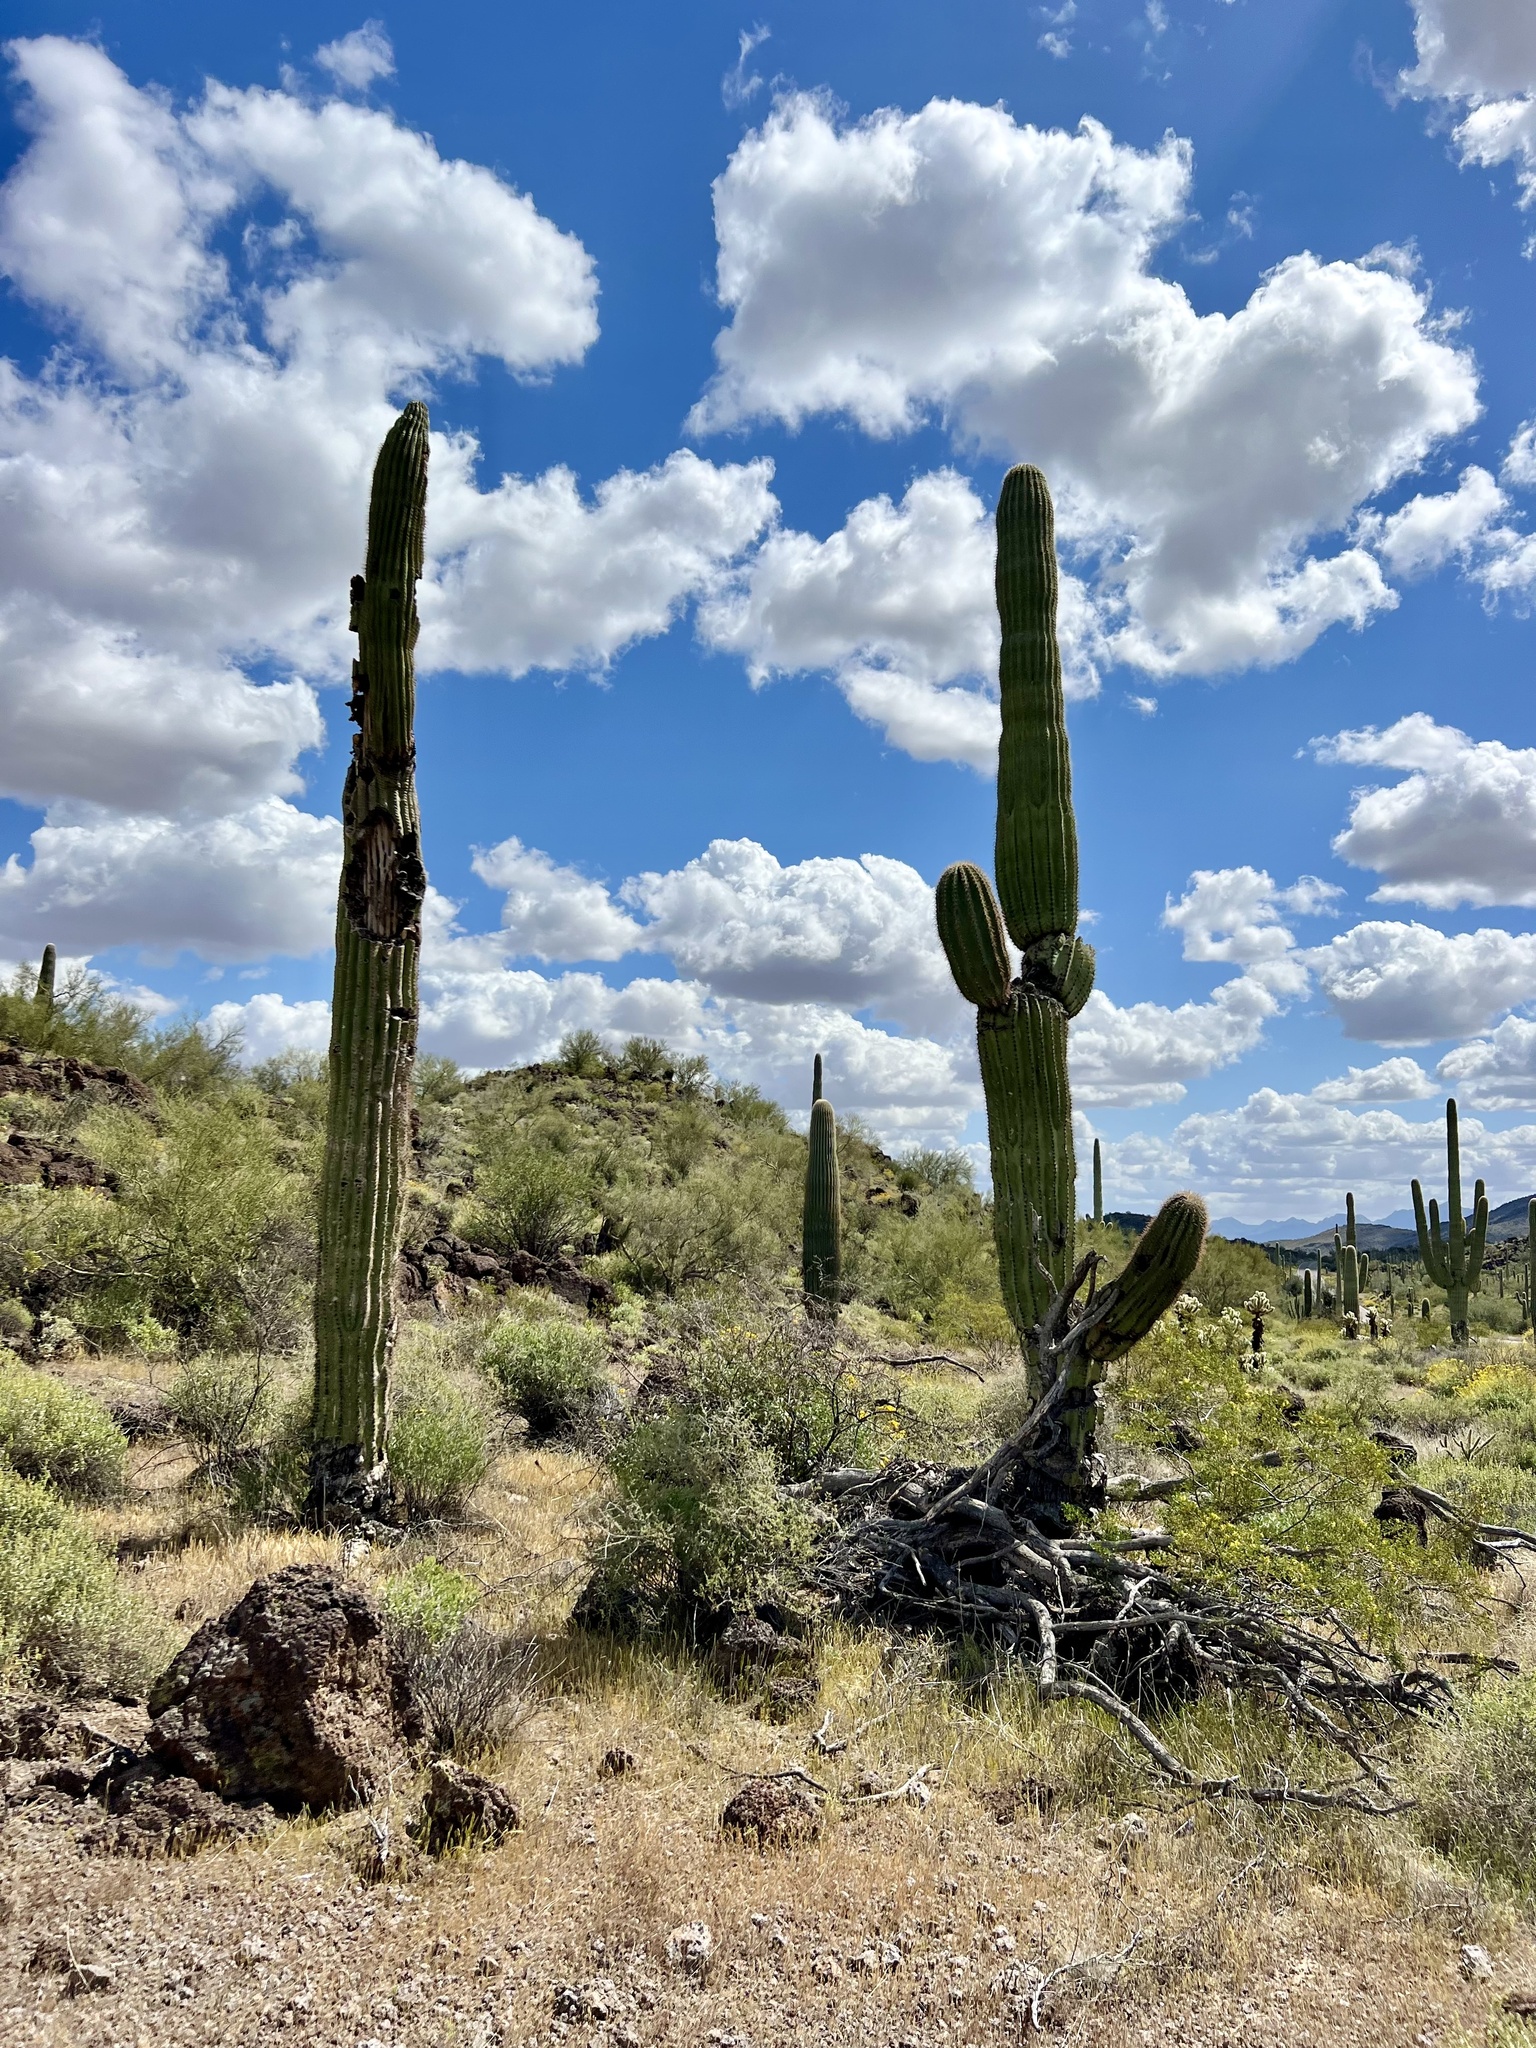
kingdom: Plantae
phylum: Tracheophyta
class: Magnoliopsida
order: Caryophyllales
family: Cactaceae
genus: Carnegiea
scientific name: Carnegiea gigantea
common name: Saguaro
